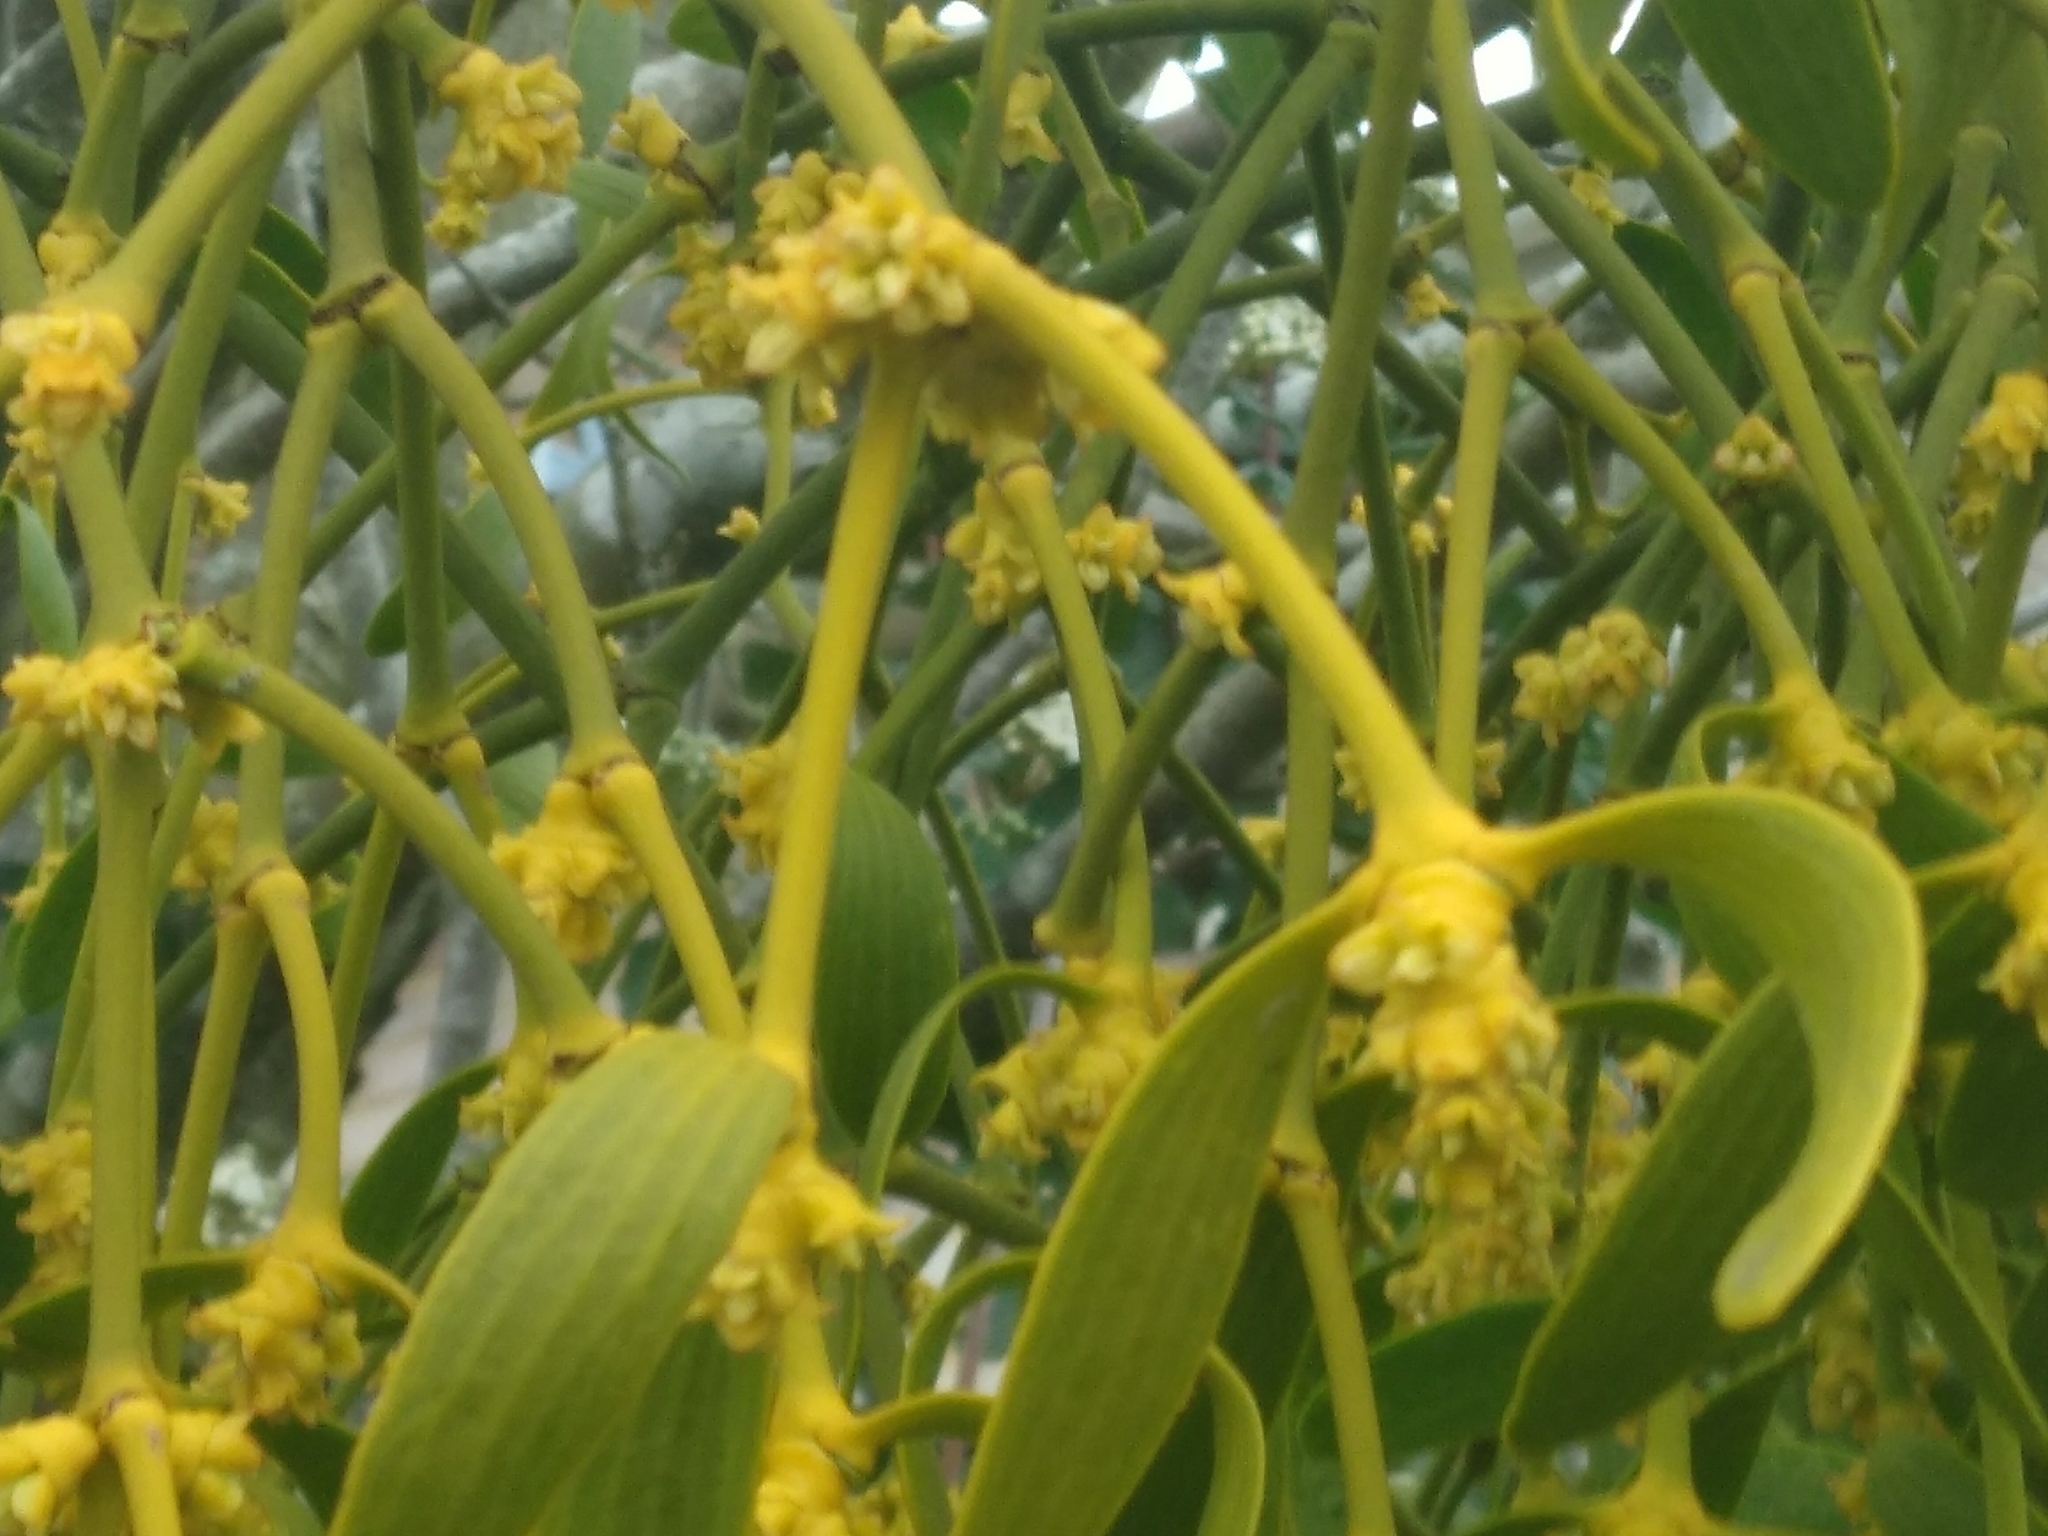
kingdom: Plantae
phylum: Tracheophyta
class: Magnoliopsida
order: Santalales
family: Viscaceae
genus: Viscum
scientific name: Viscum album
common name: Mistletoe
